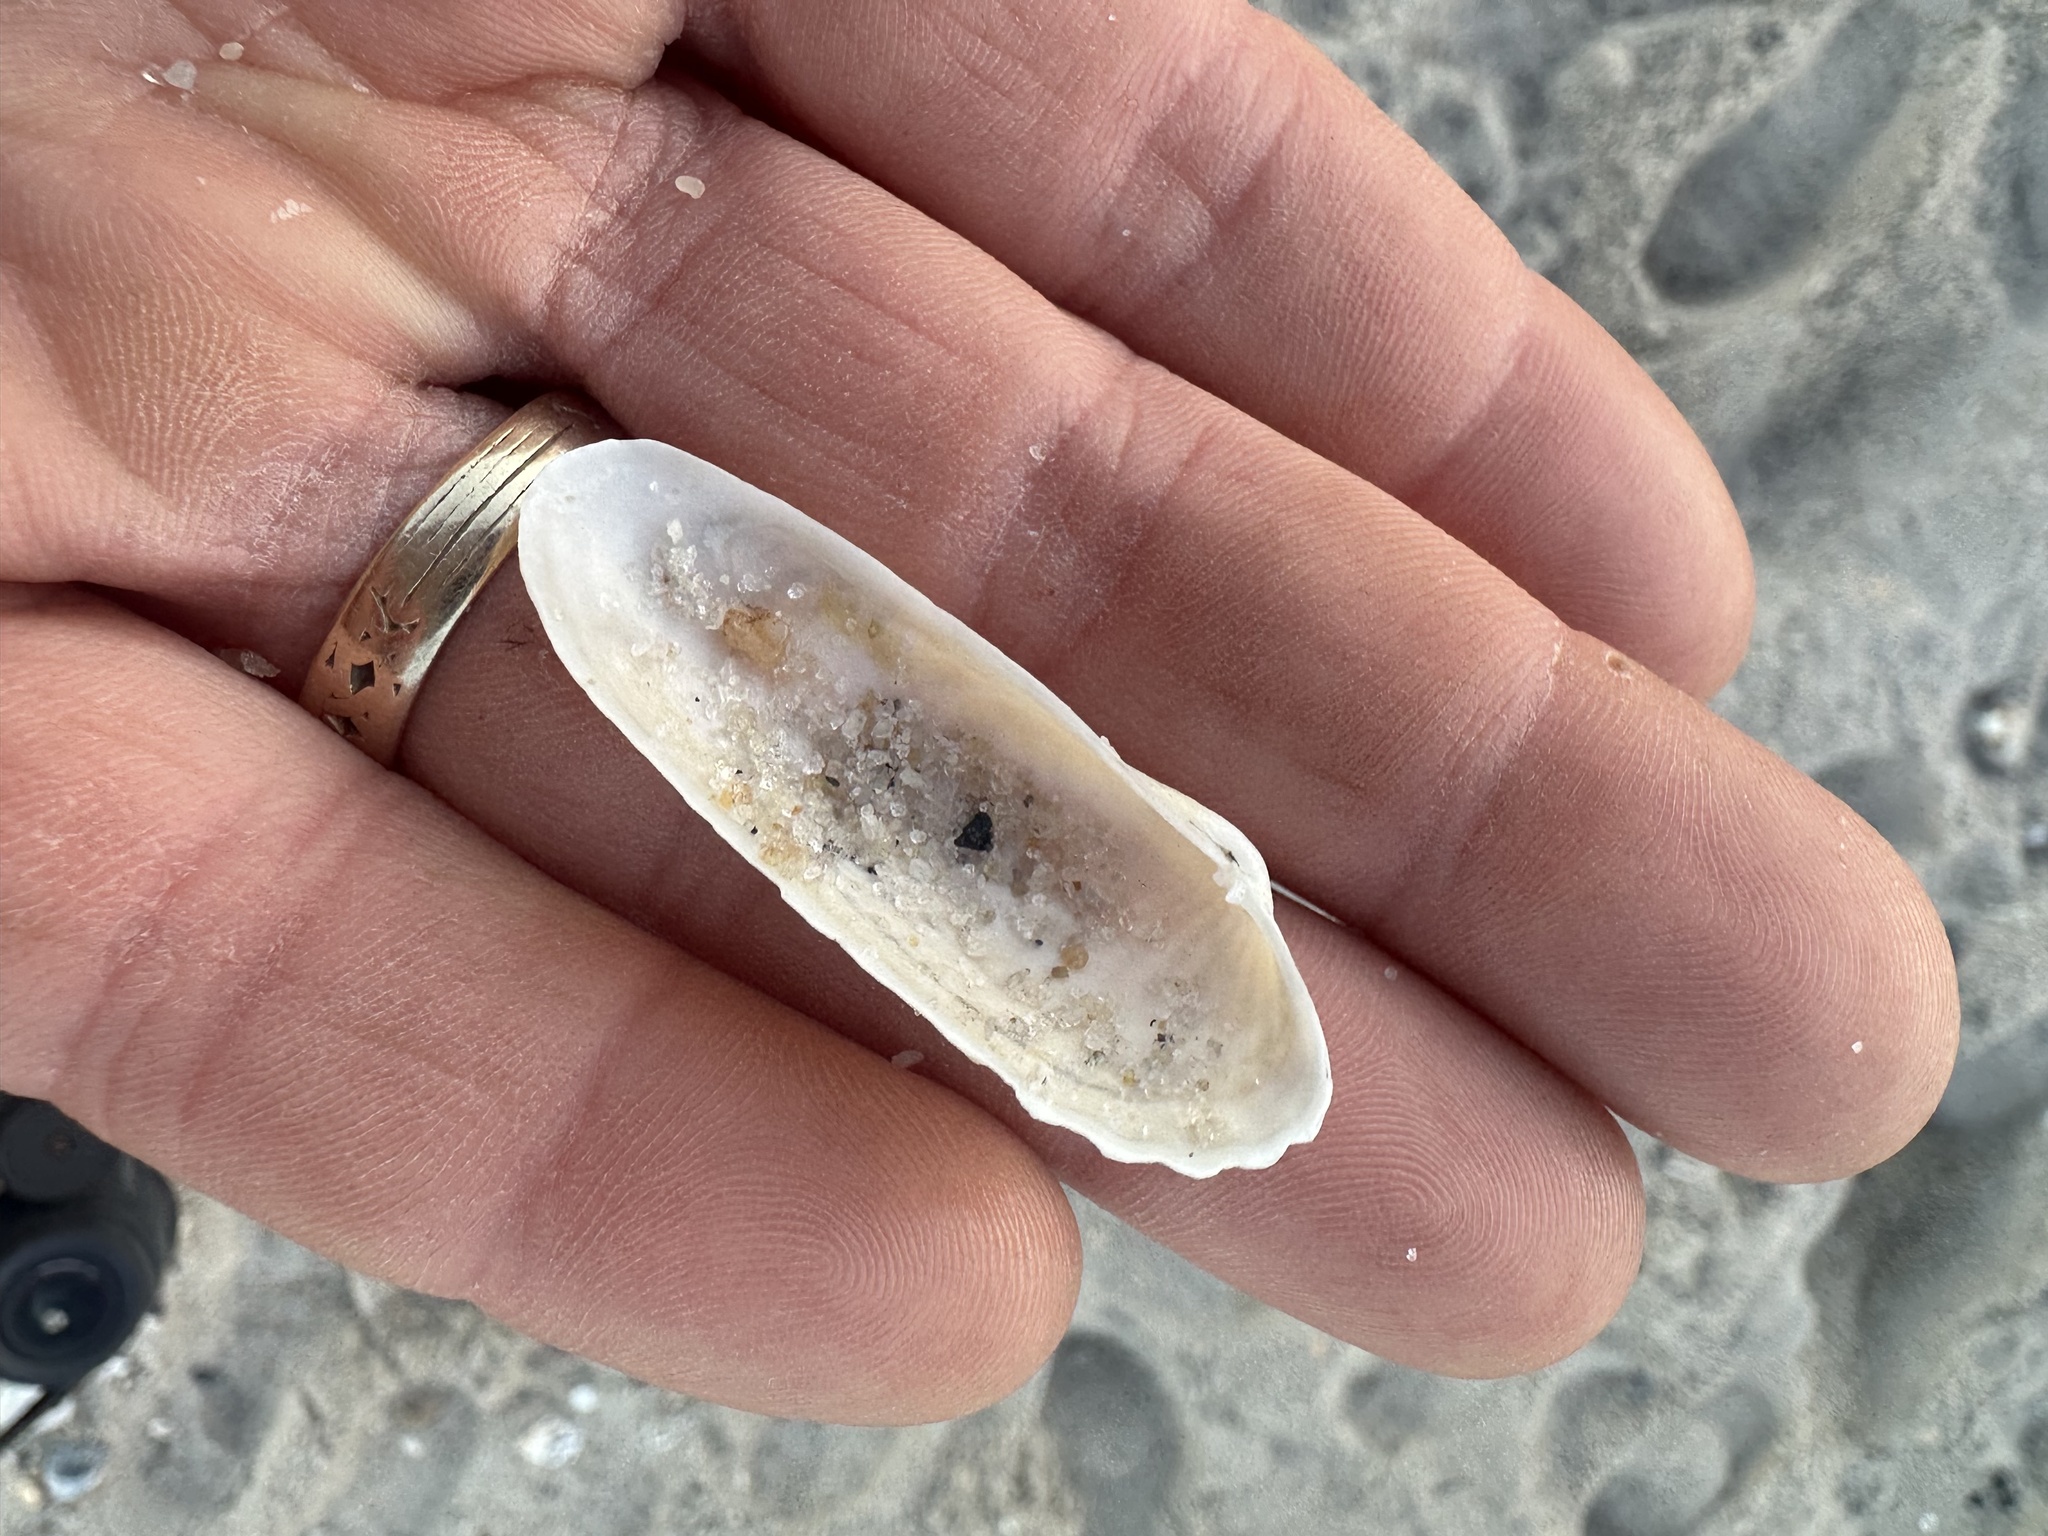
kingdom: Animalia
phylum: Mollusca
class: Bivalvia
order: Venerida
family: Veneridae
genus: Petricolaria
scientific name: Petricolaria pholadiformis
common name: American piddock
